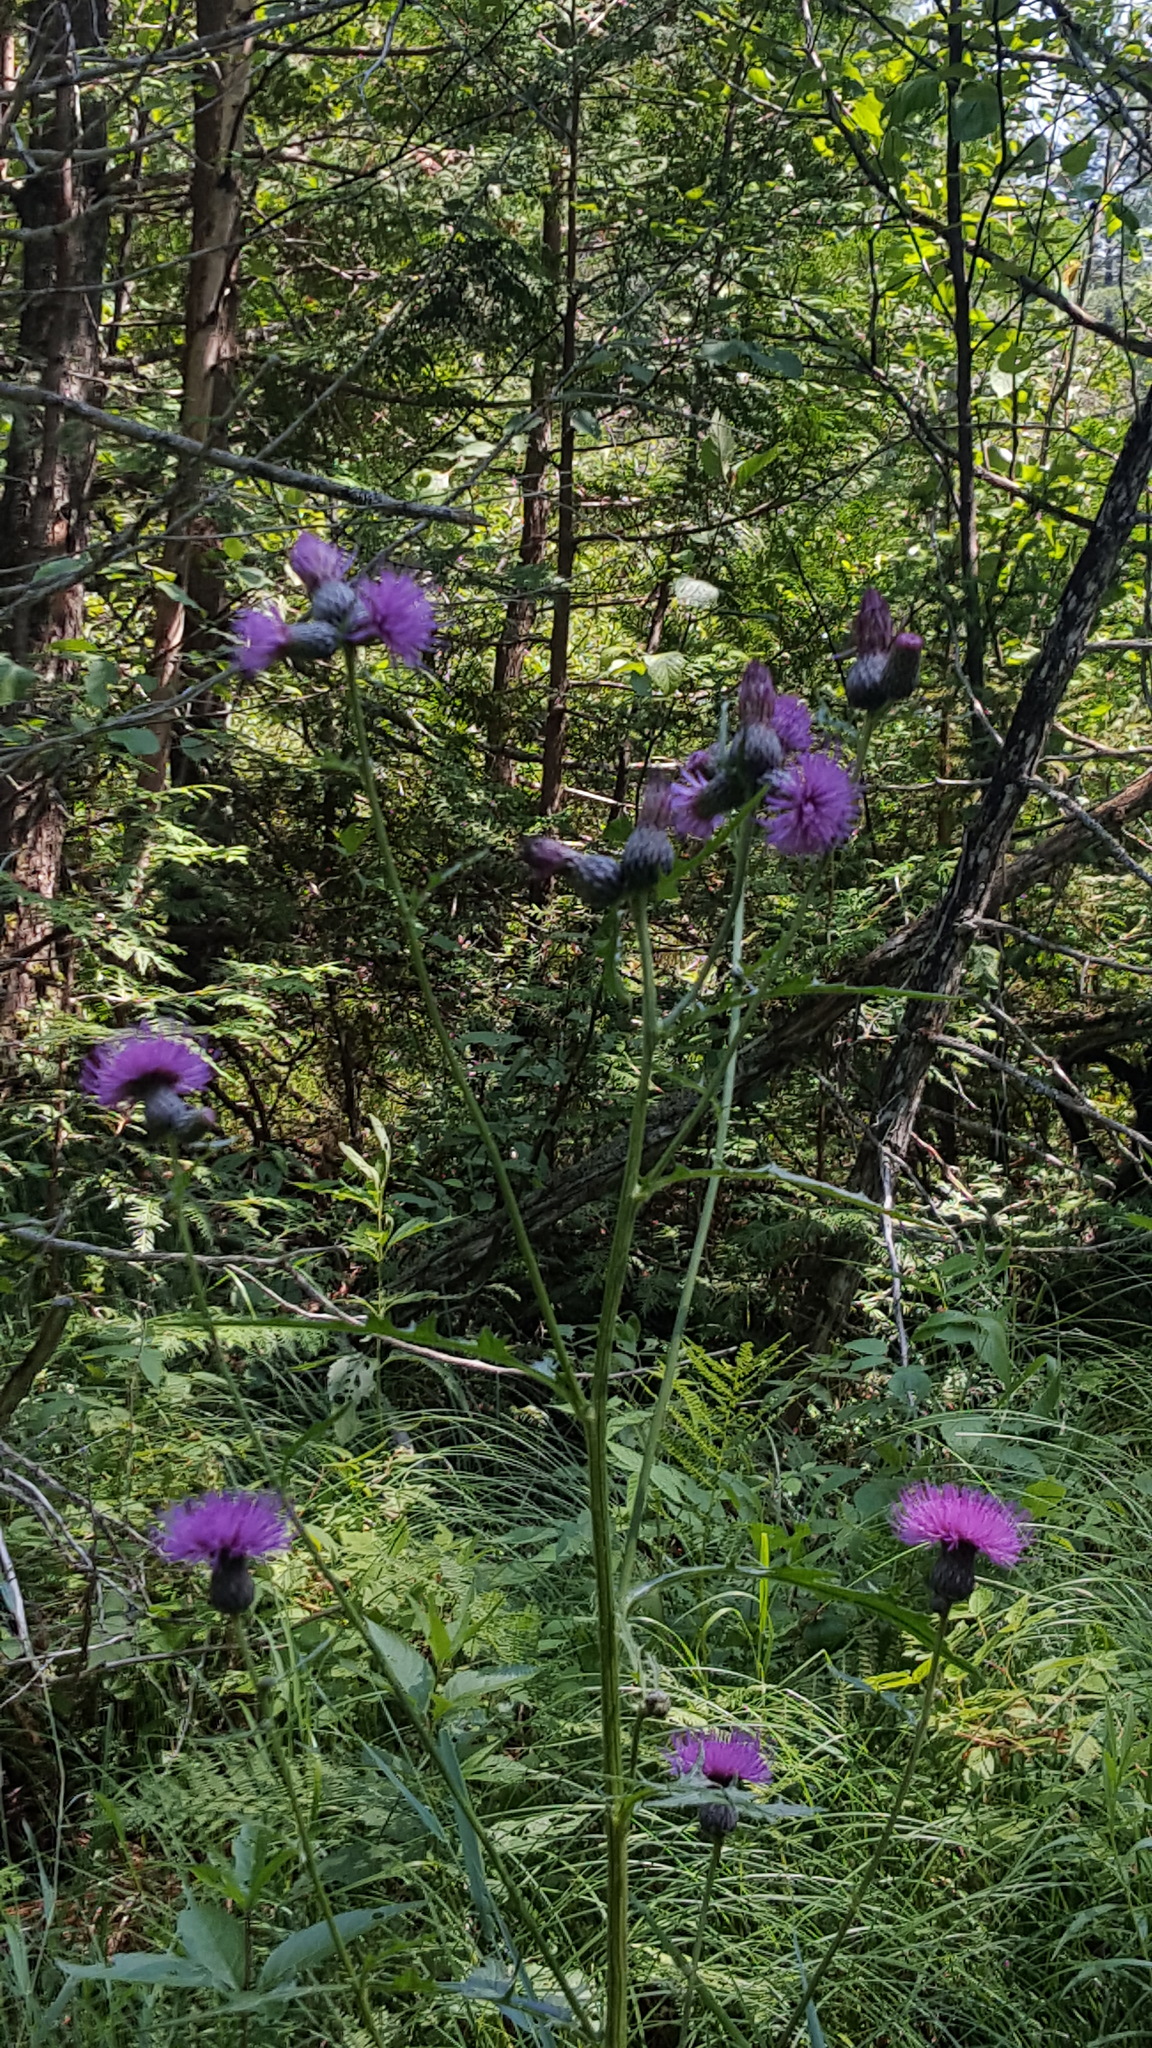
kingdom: Plantae
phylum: Tracheophyta
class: Magnoliopsida
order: Asterales
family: Asteraceae
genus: Cirsium
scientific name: Cirsium muticum
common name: Dunce-nettle
